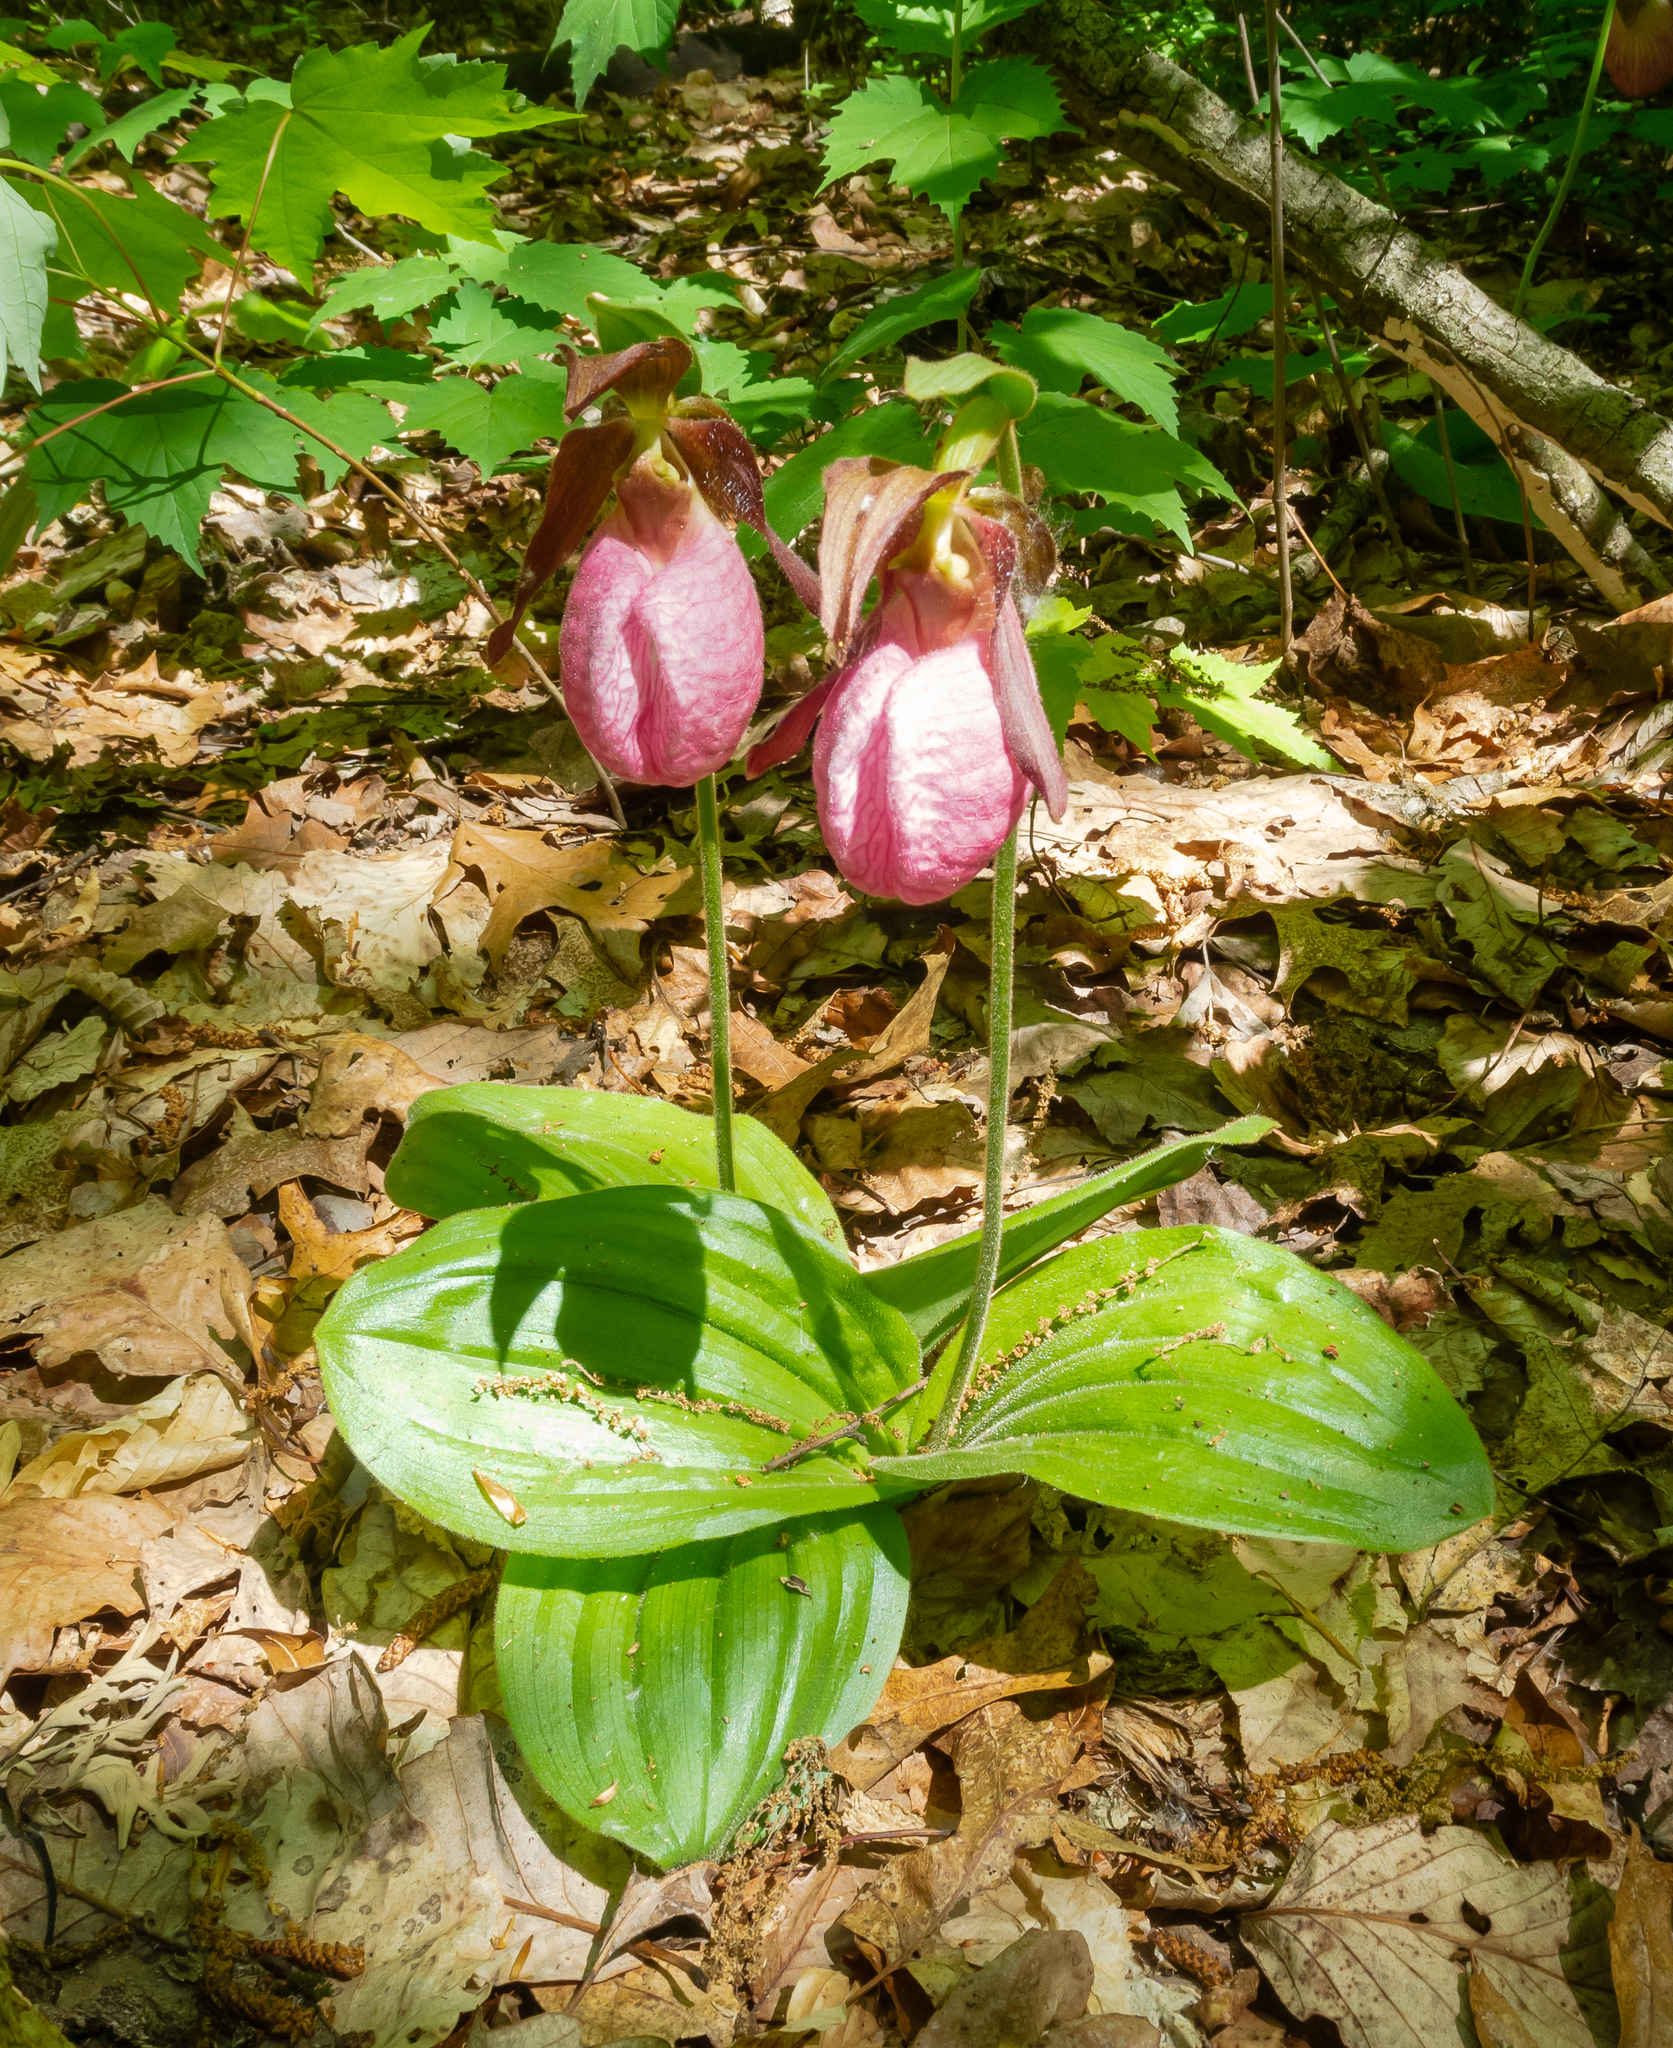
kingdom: Plantae
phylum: Tracheophyta
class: Liliopsida
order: Asparagales
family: Orchidaceae
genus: Cypripedium
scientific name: Cypripedium acaule
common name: Pink lady's-slipper
